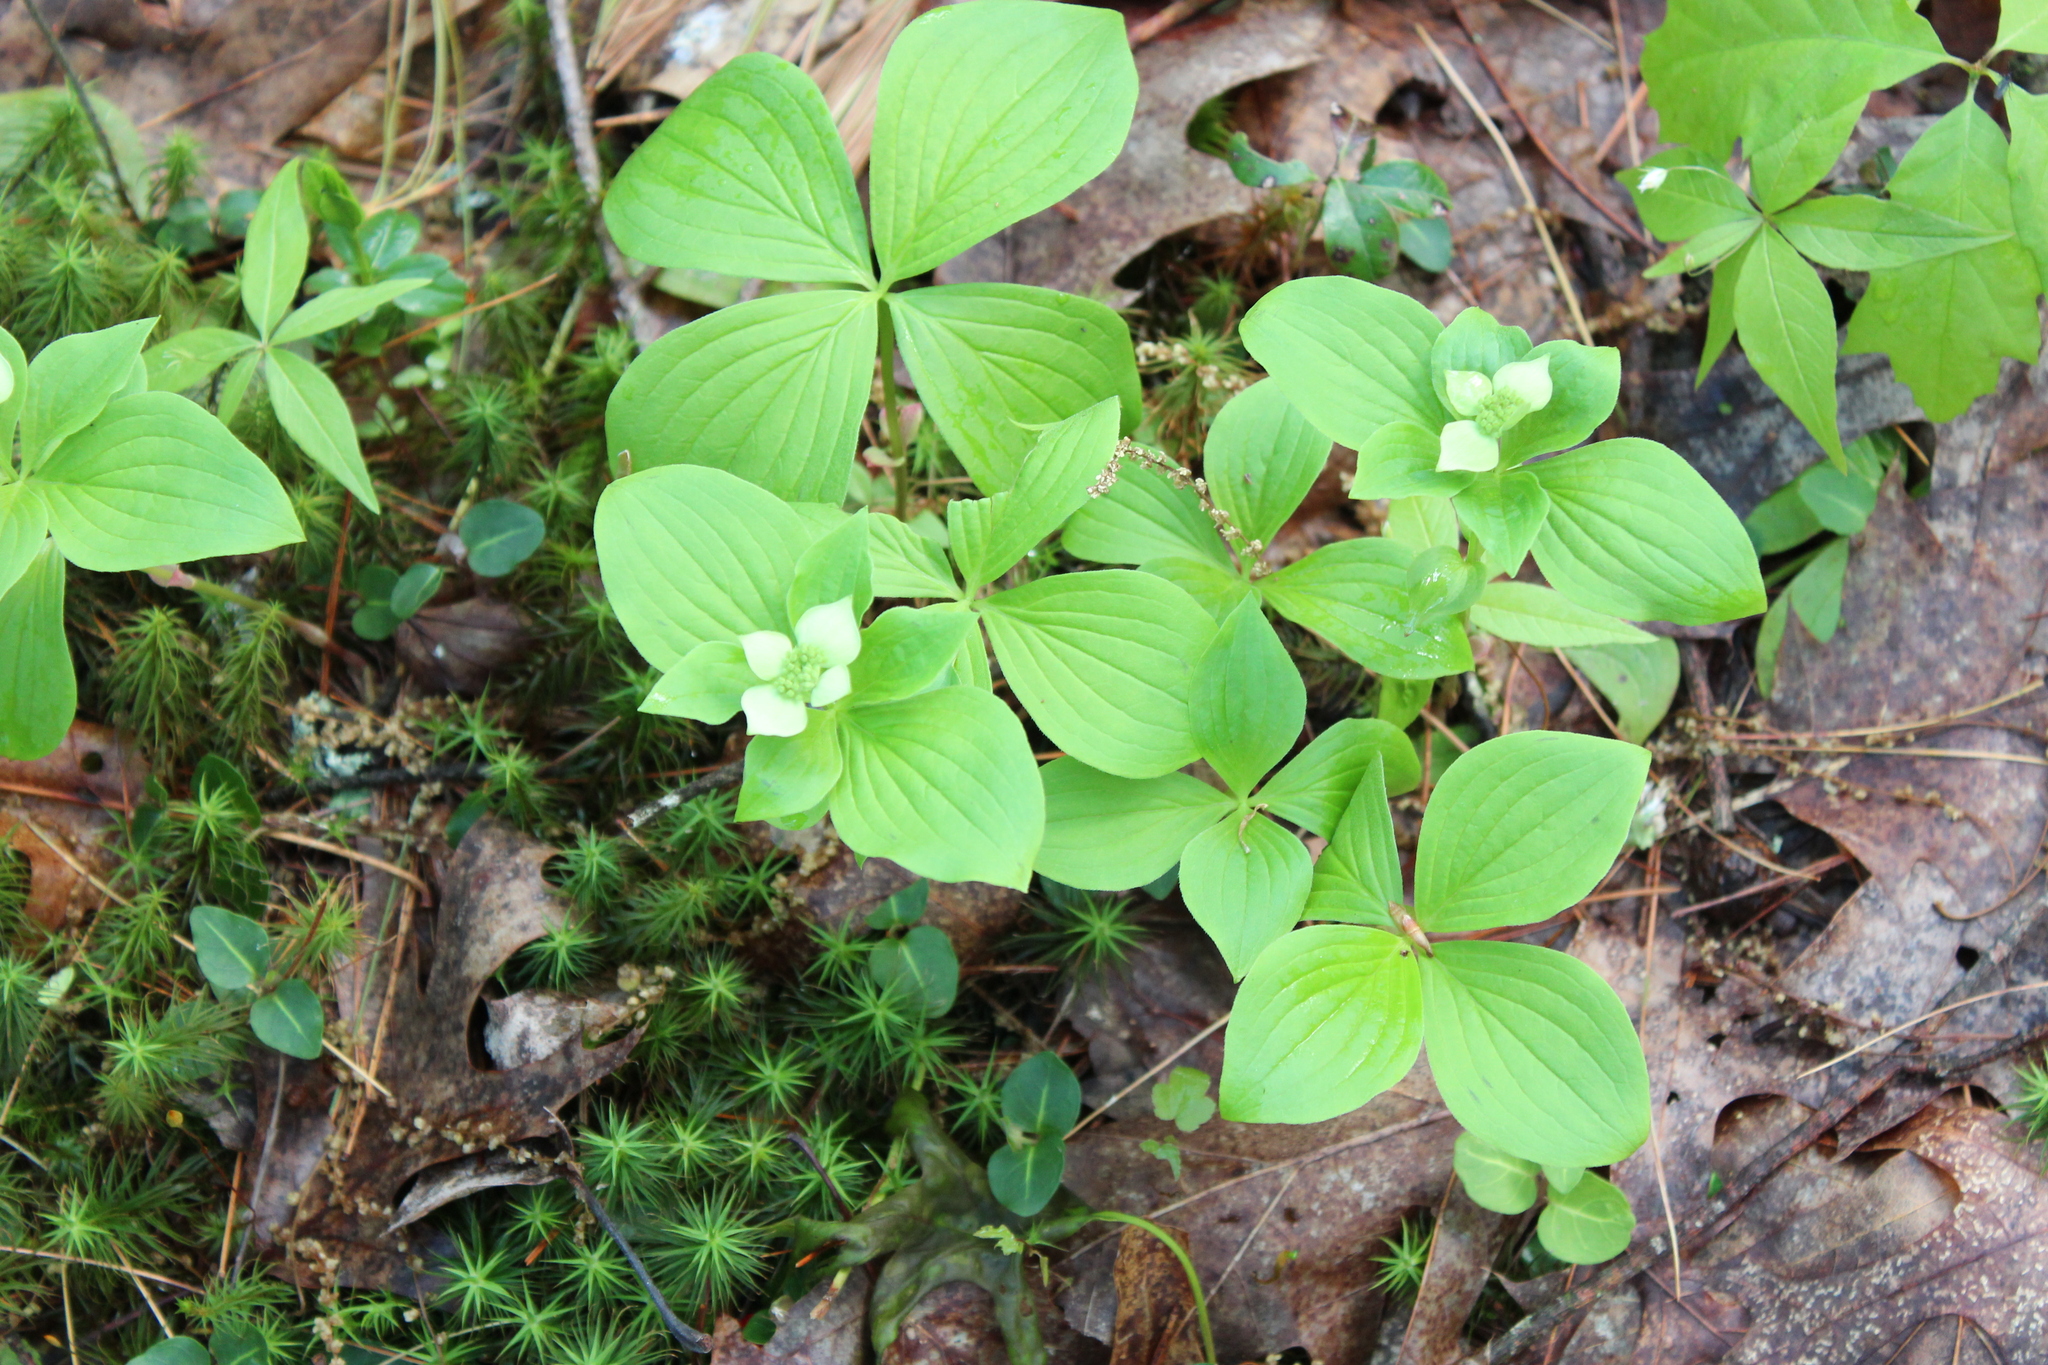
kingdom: Plantae
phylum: Tracheophyta
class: Magnoliopsida
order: Cornales
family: Cornaceae
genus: Cornus
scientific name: Cornus canadensis
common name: Creeping dogwood
